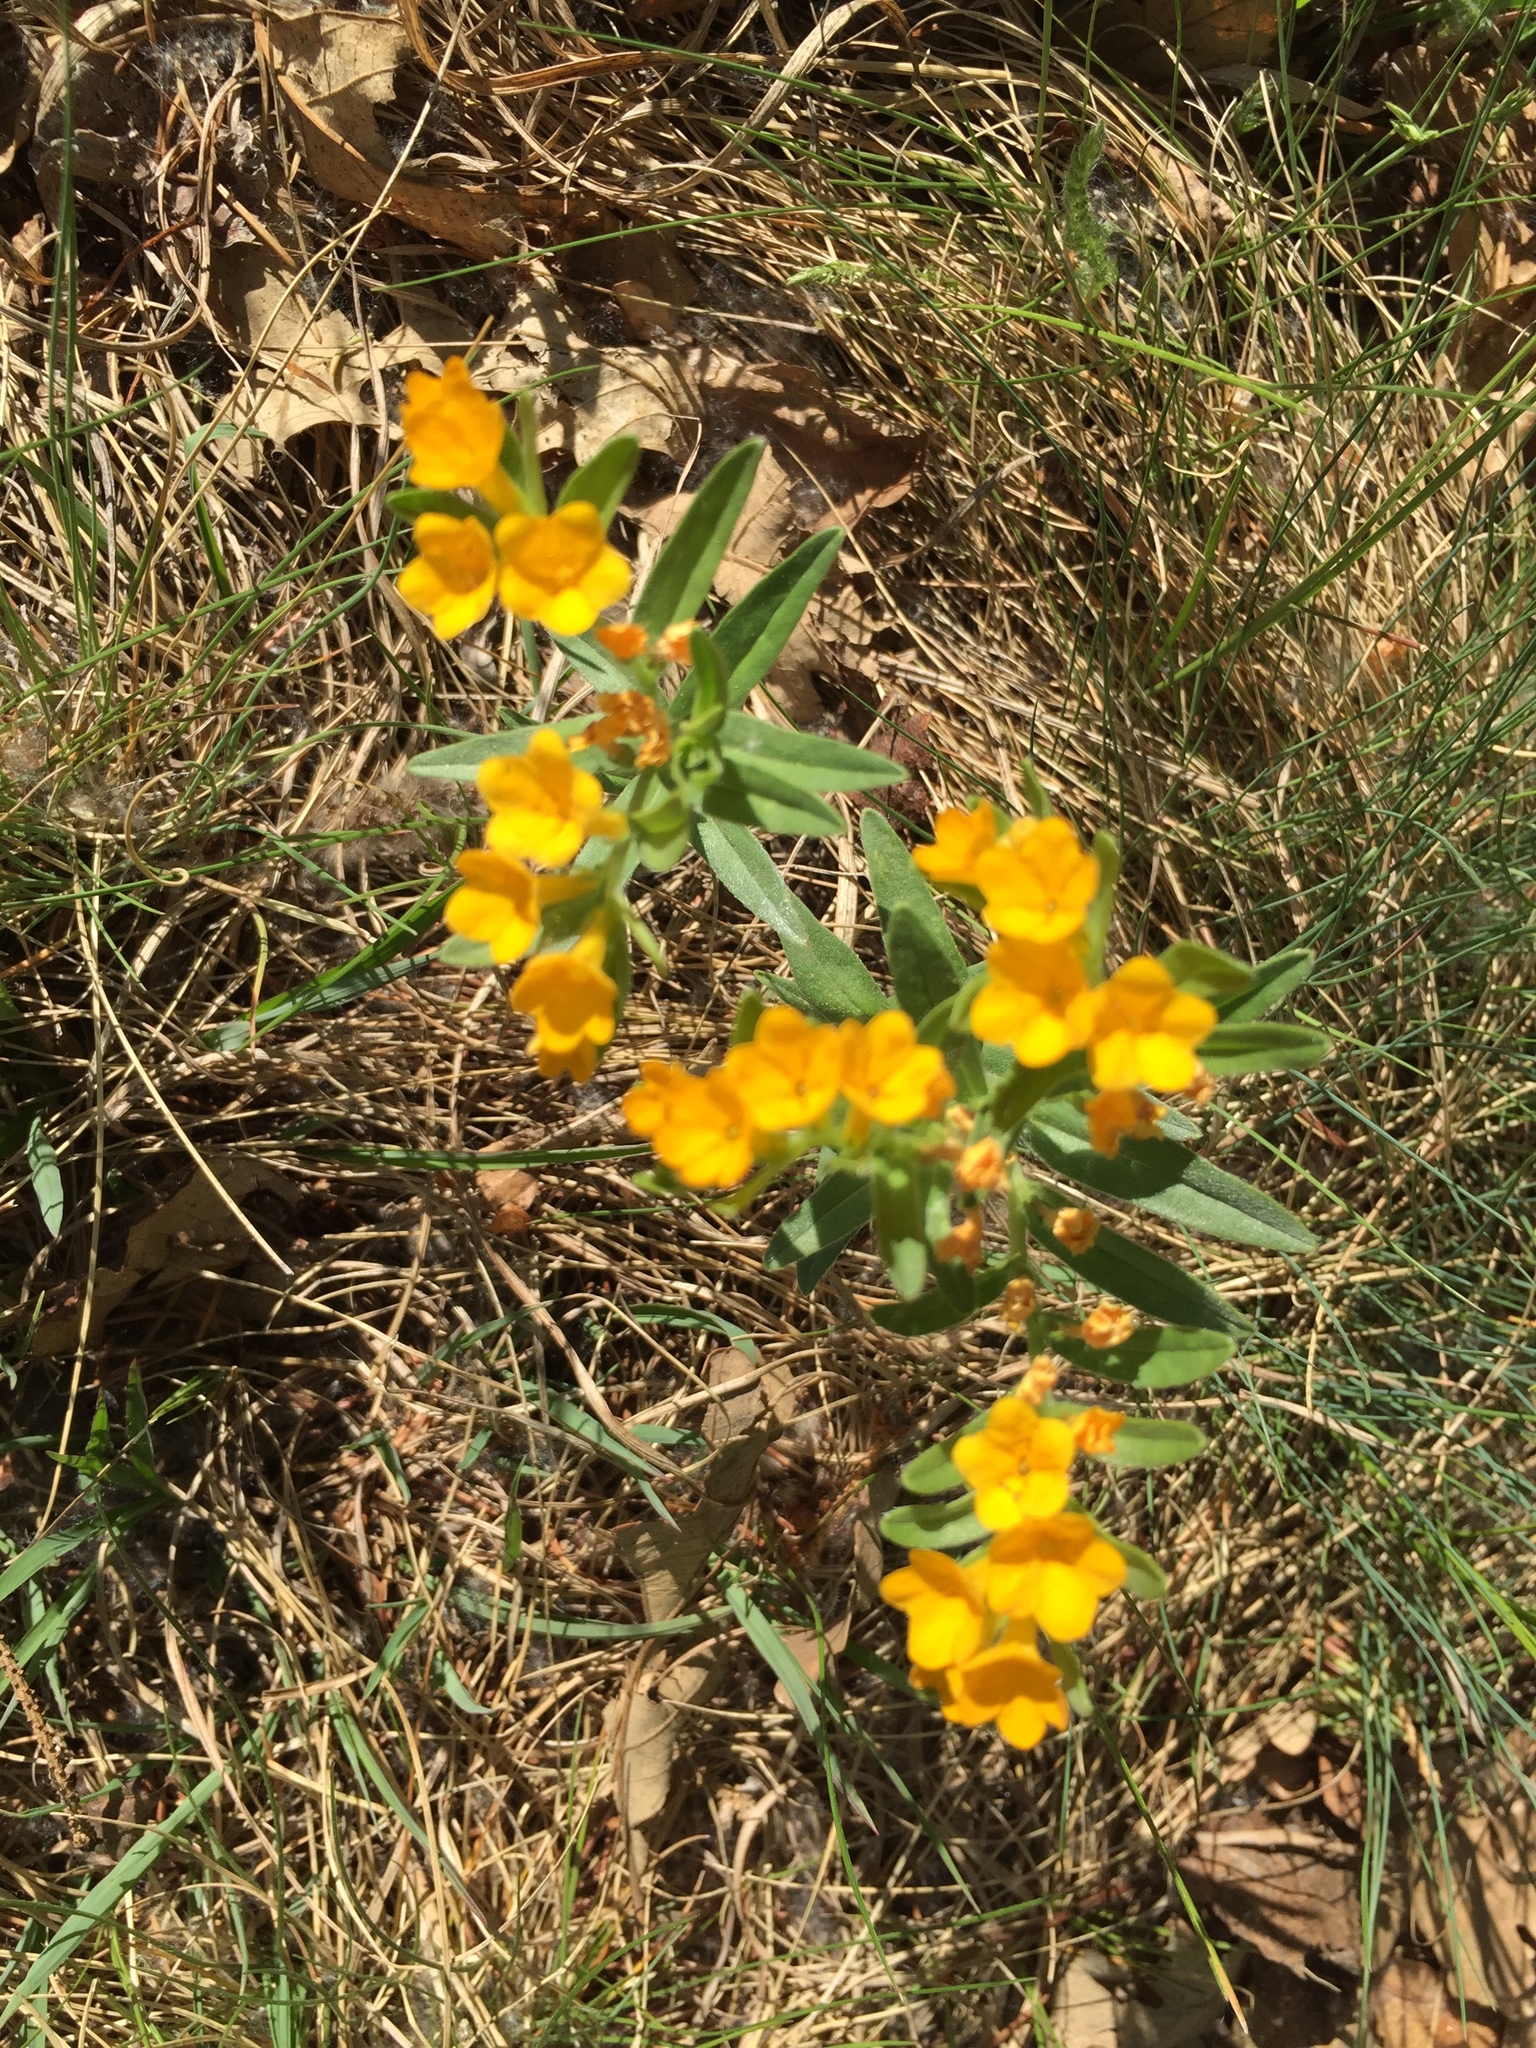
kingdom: Plantae
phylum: Tracheophyta
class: Magnoliopsida
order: Boraginales
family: Boraginaceae
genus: Lithospermum
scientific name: Lithospermum canescens
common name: Hoary puccoon
